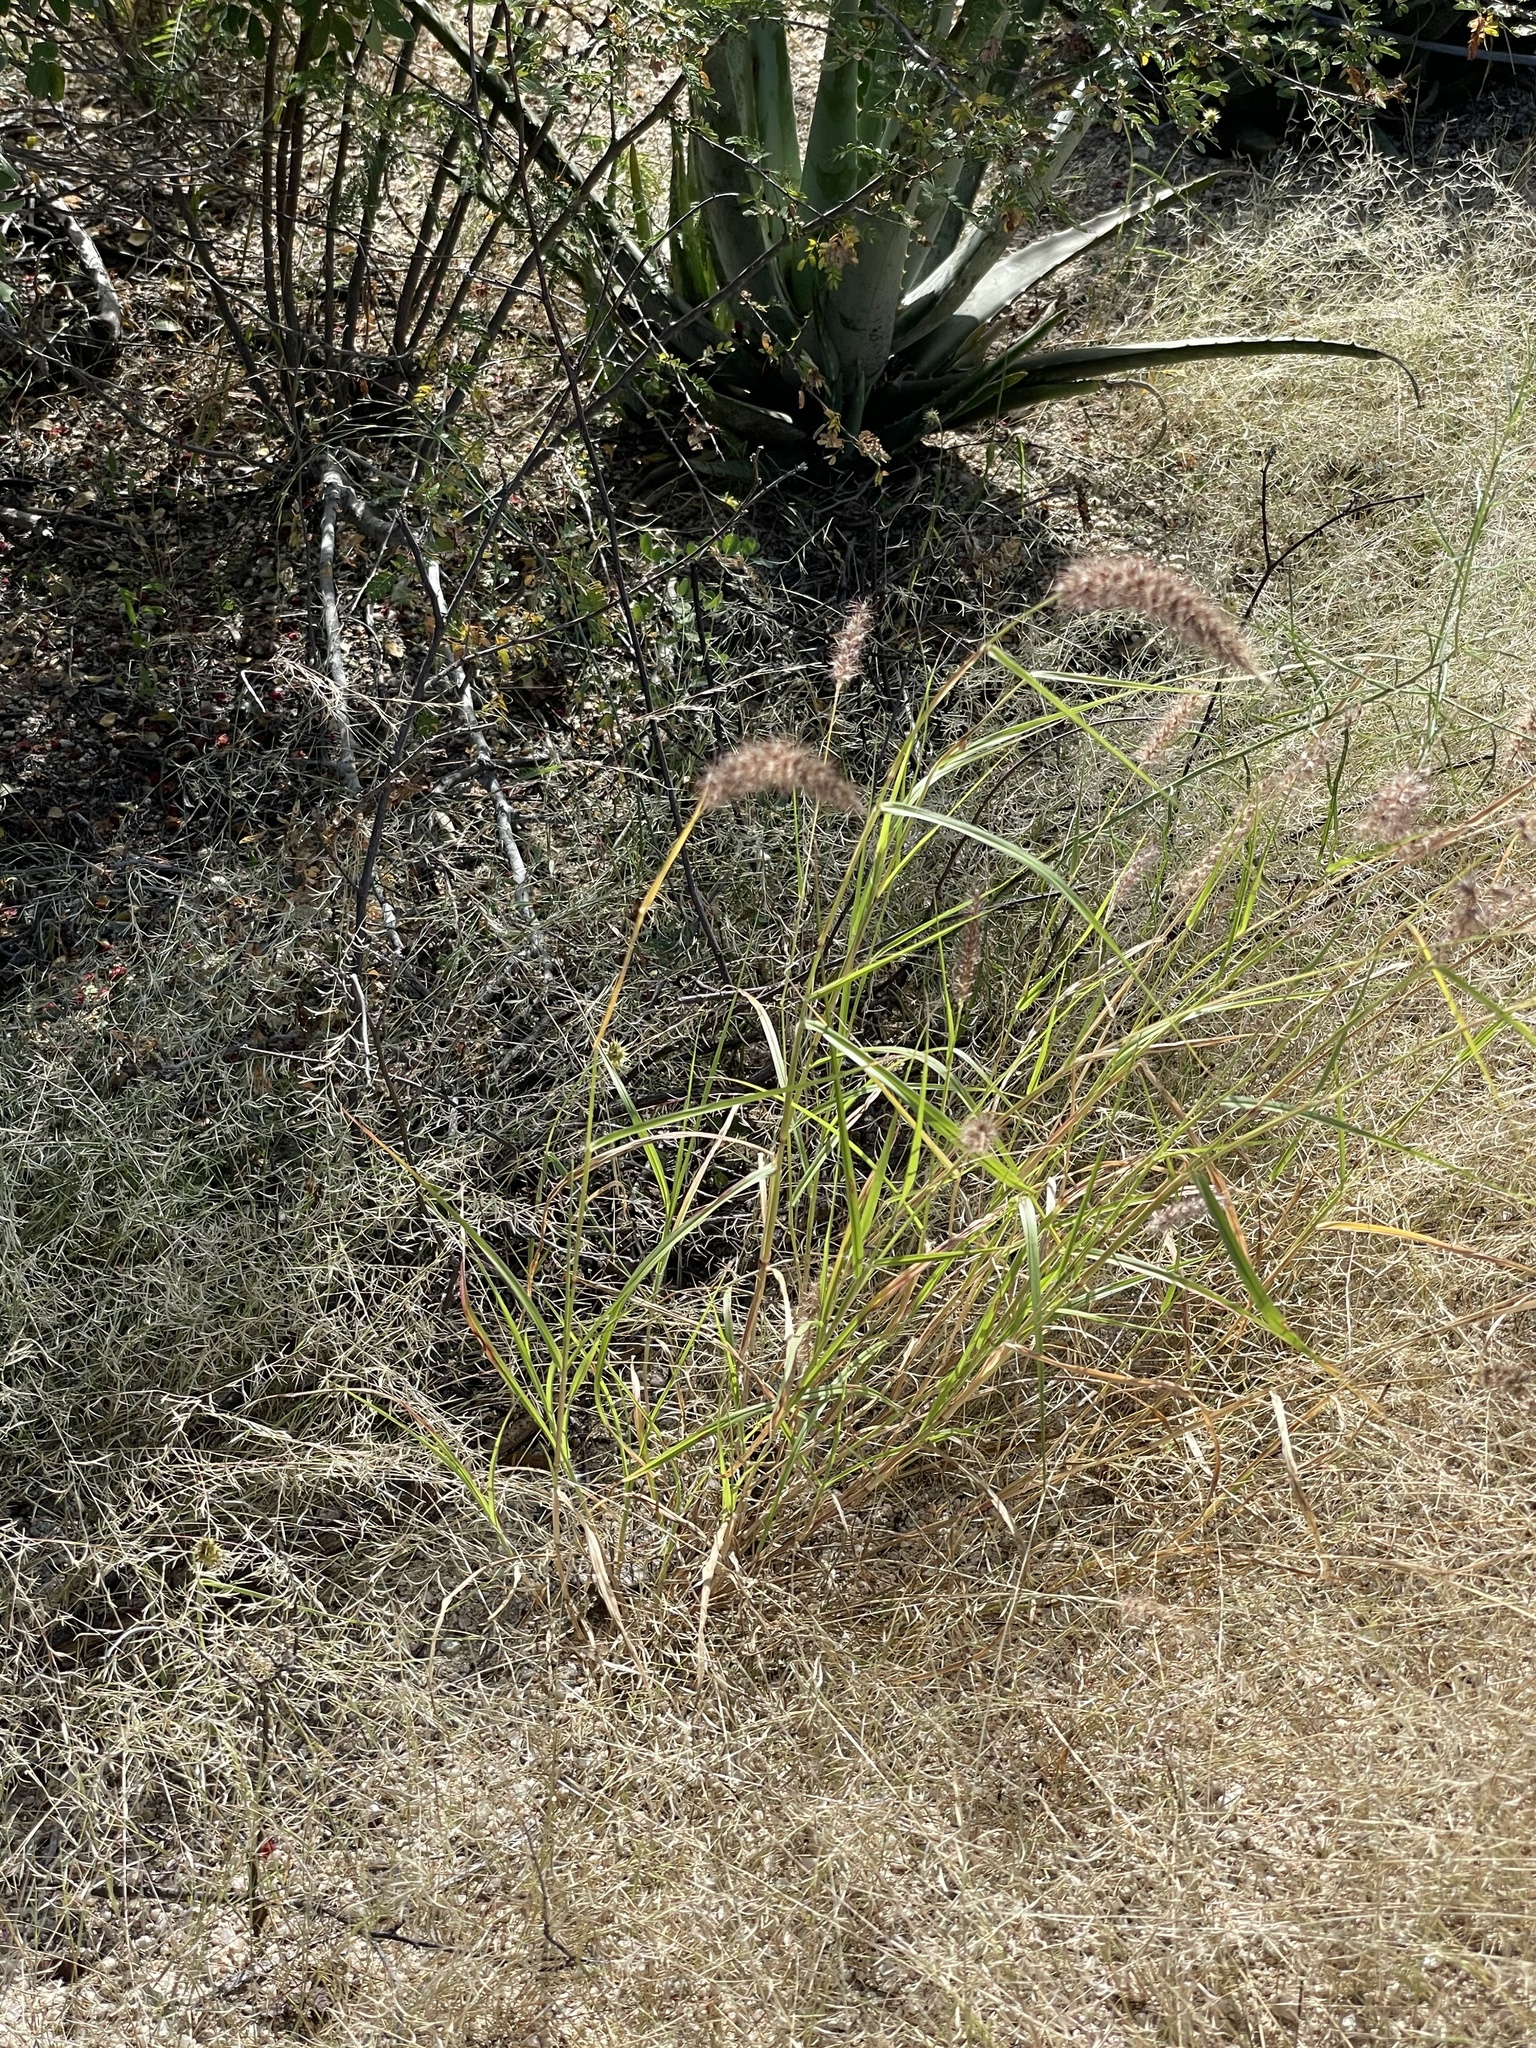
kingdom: Plantae
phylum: Tracheophyta
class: Liliopsida
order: Poales
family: Poaceae
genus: Cenchrus
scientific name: Cenchrus ciliaris
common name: Buffelgrass
